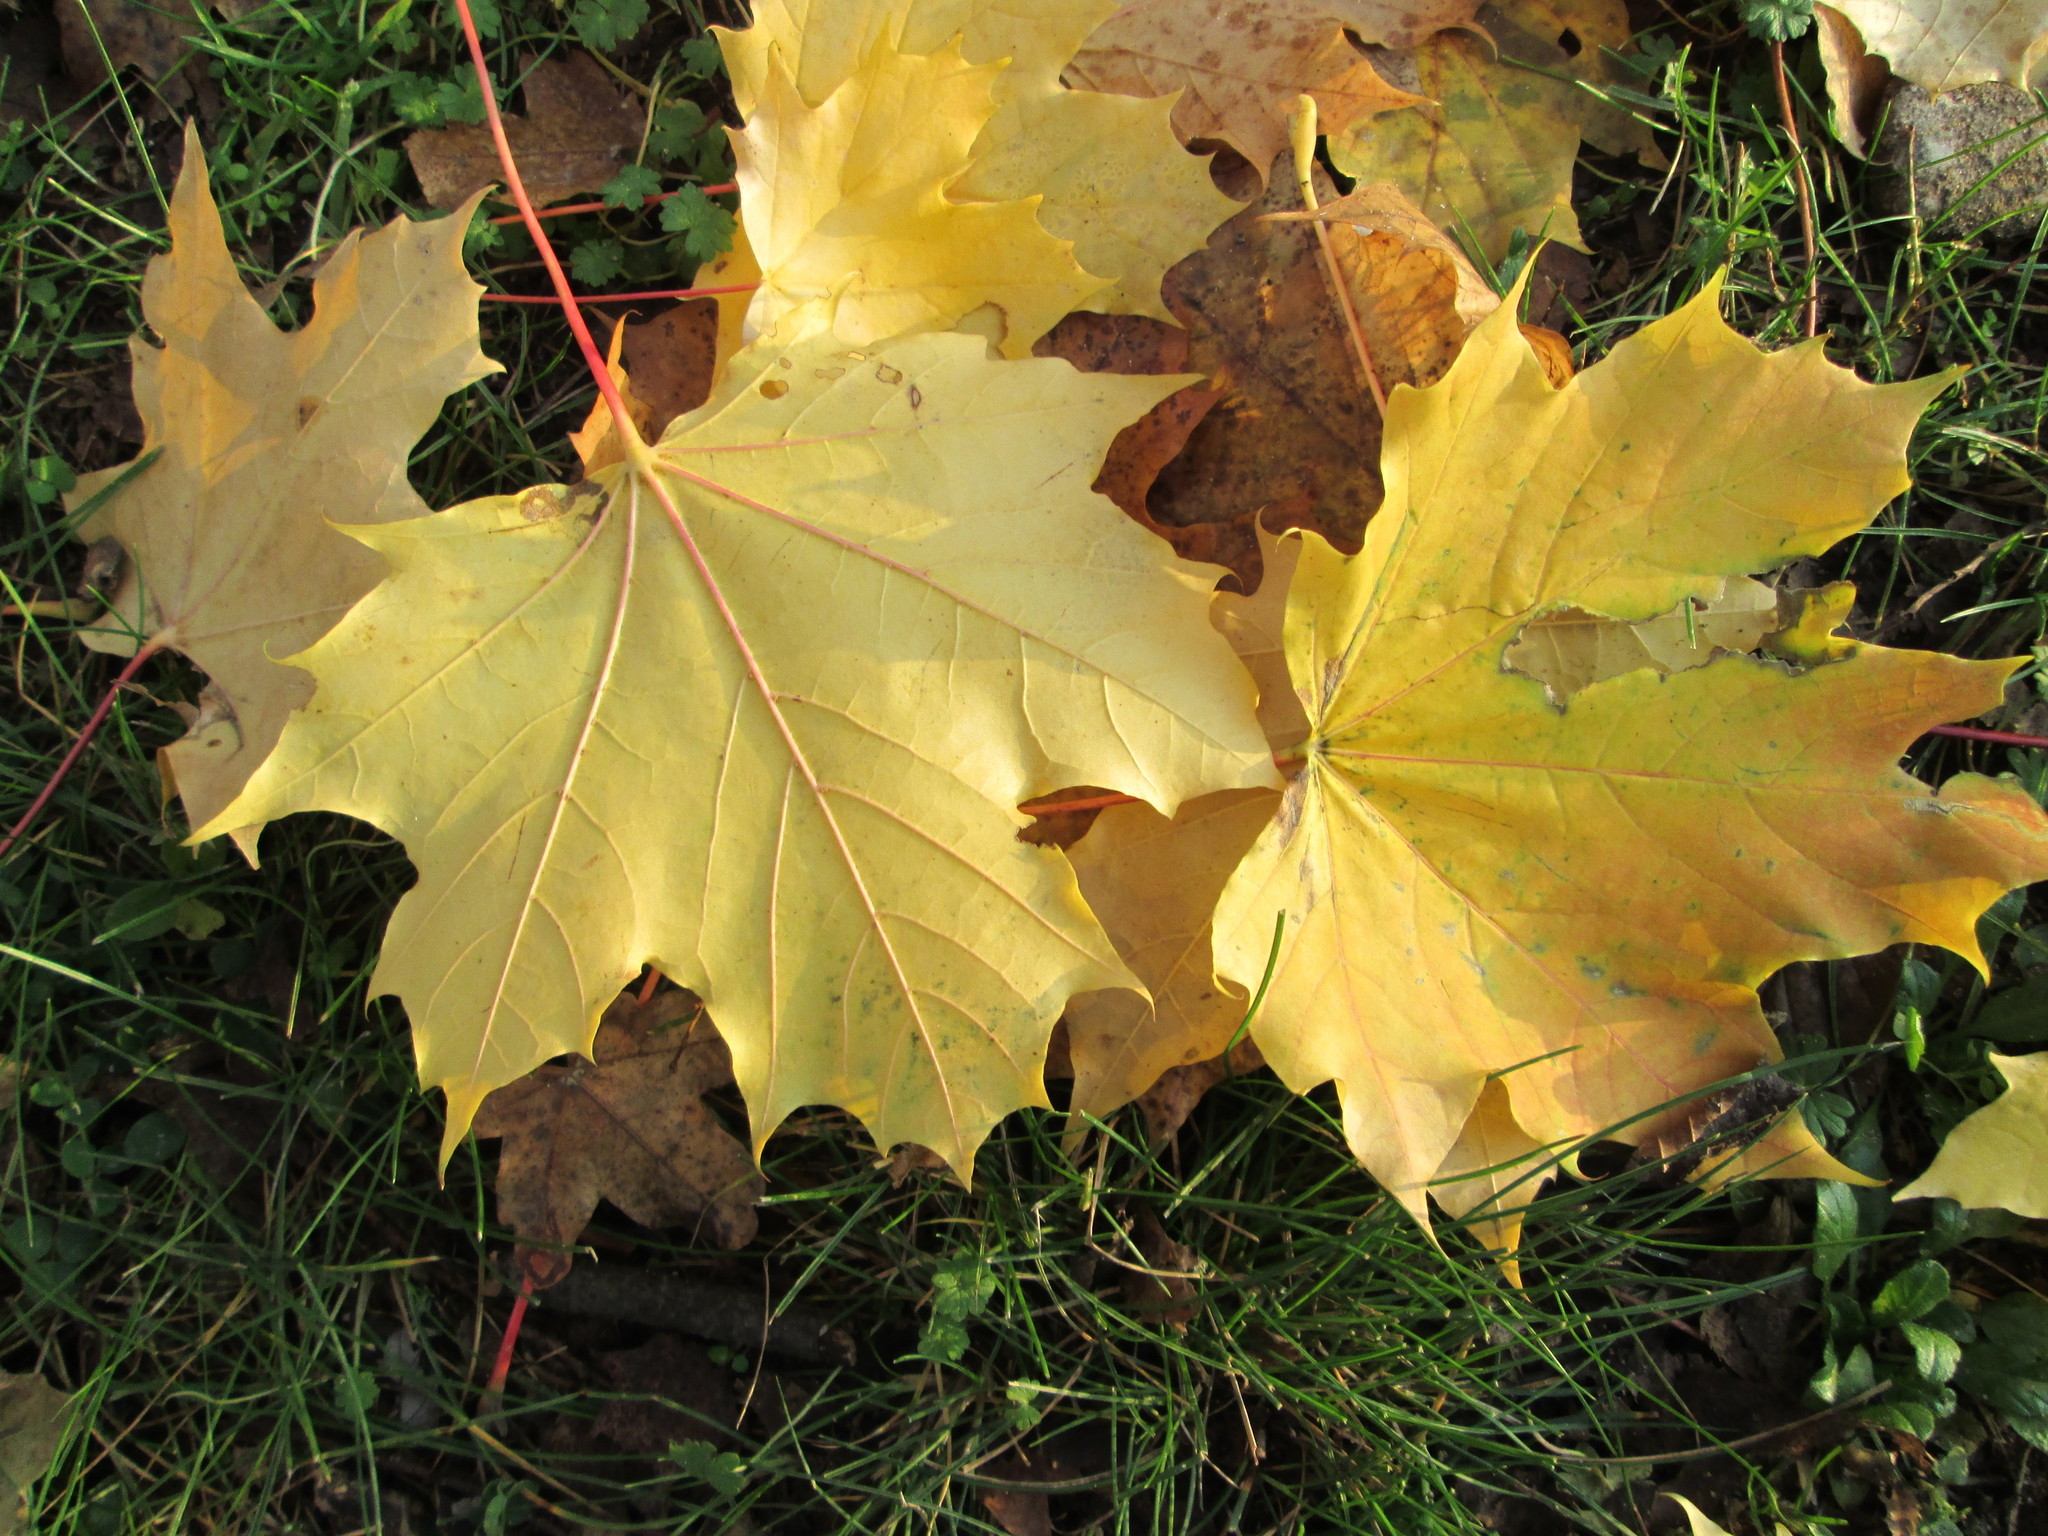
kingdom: Plantae
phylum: Tracheophyta
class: Magnoliopsida
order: Sapindales
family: Sapindaceae
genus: Acer
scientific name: Acer platanoides
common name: Norway maple
